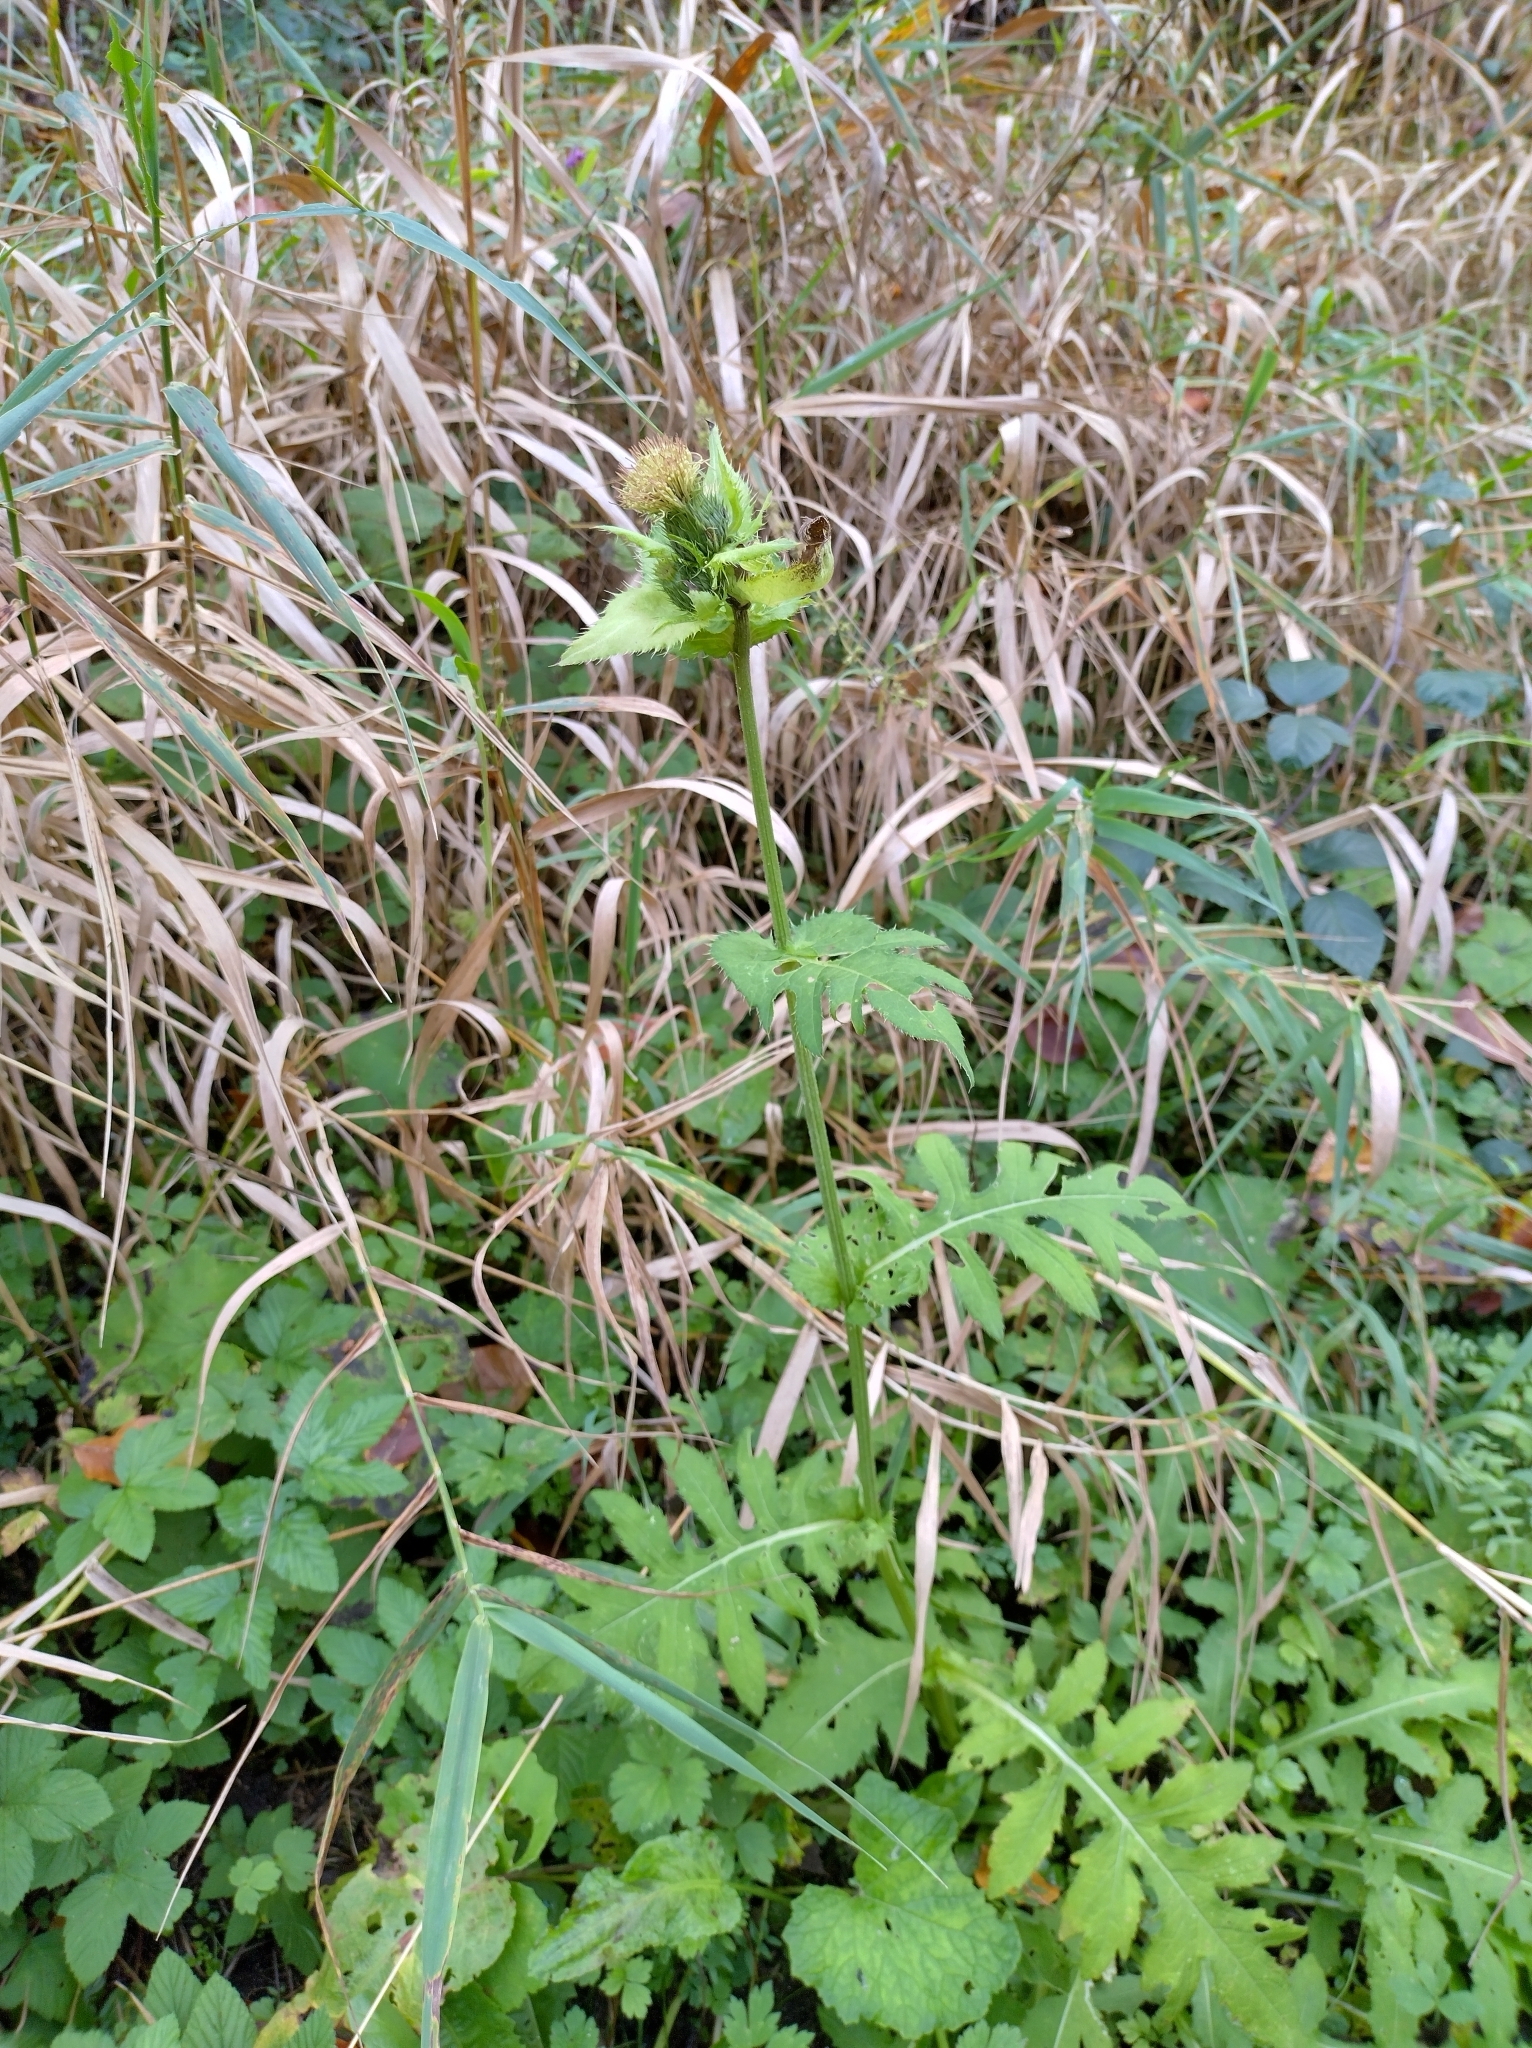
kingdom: Plantae
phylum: Tracheophyta
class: Magnoliopsida
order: Asterales
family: Asteraceae
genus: Cirsium
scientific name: Cirsium oleraceum
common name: Cabbage thistle
